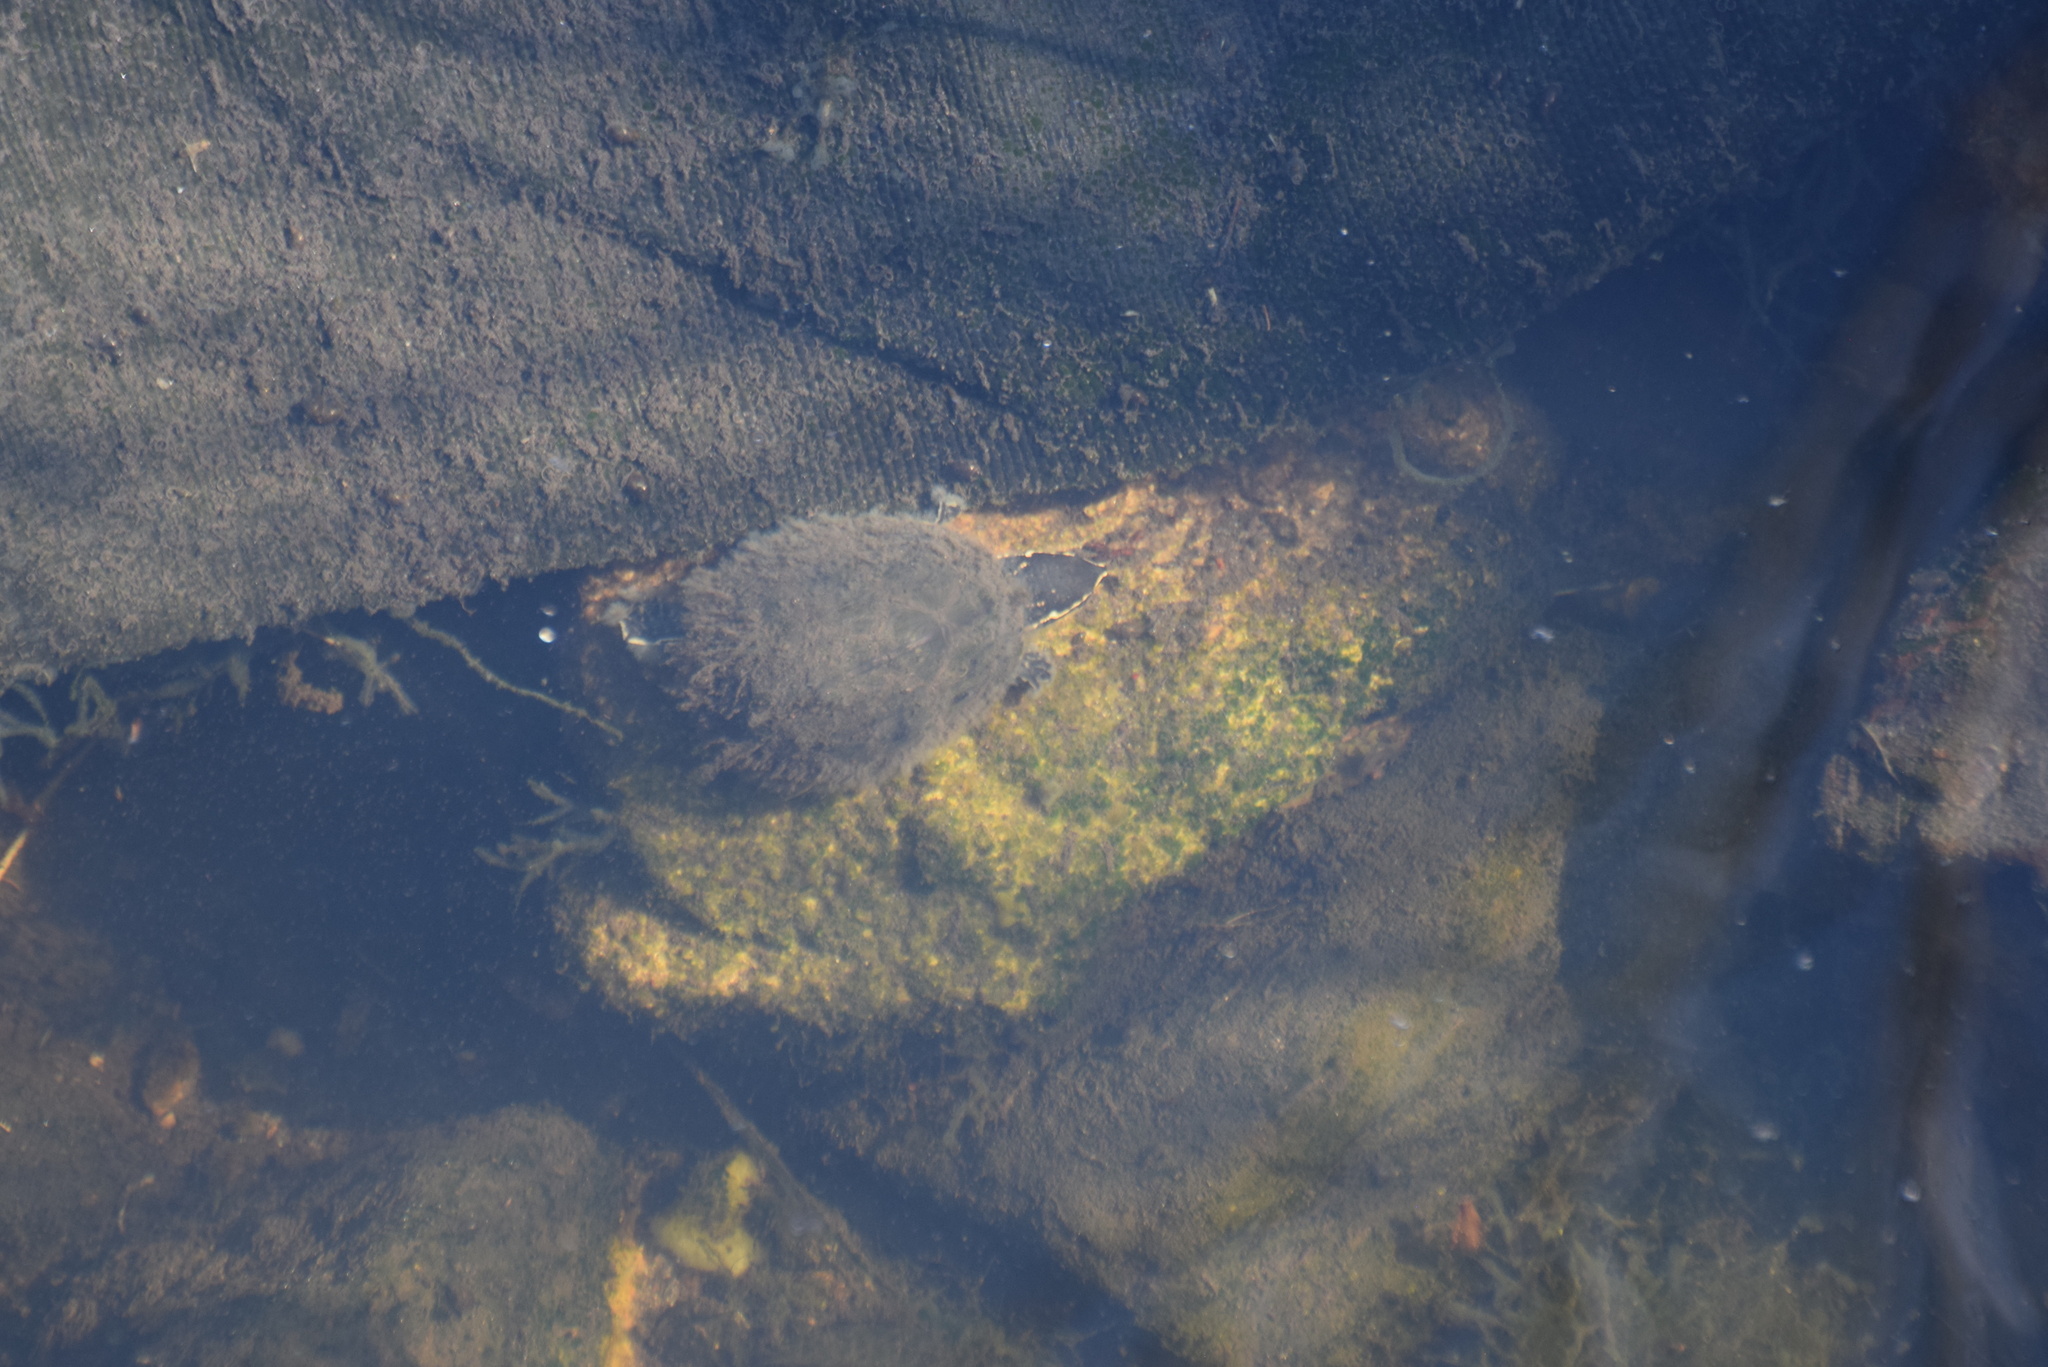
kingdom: Animalia
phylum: Chordata
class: Testudines
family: Kinosternidae
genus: Sternotherus
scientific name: Sternotherus odoratus
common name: Common musk turtle
